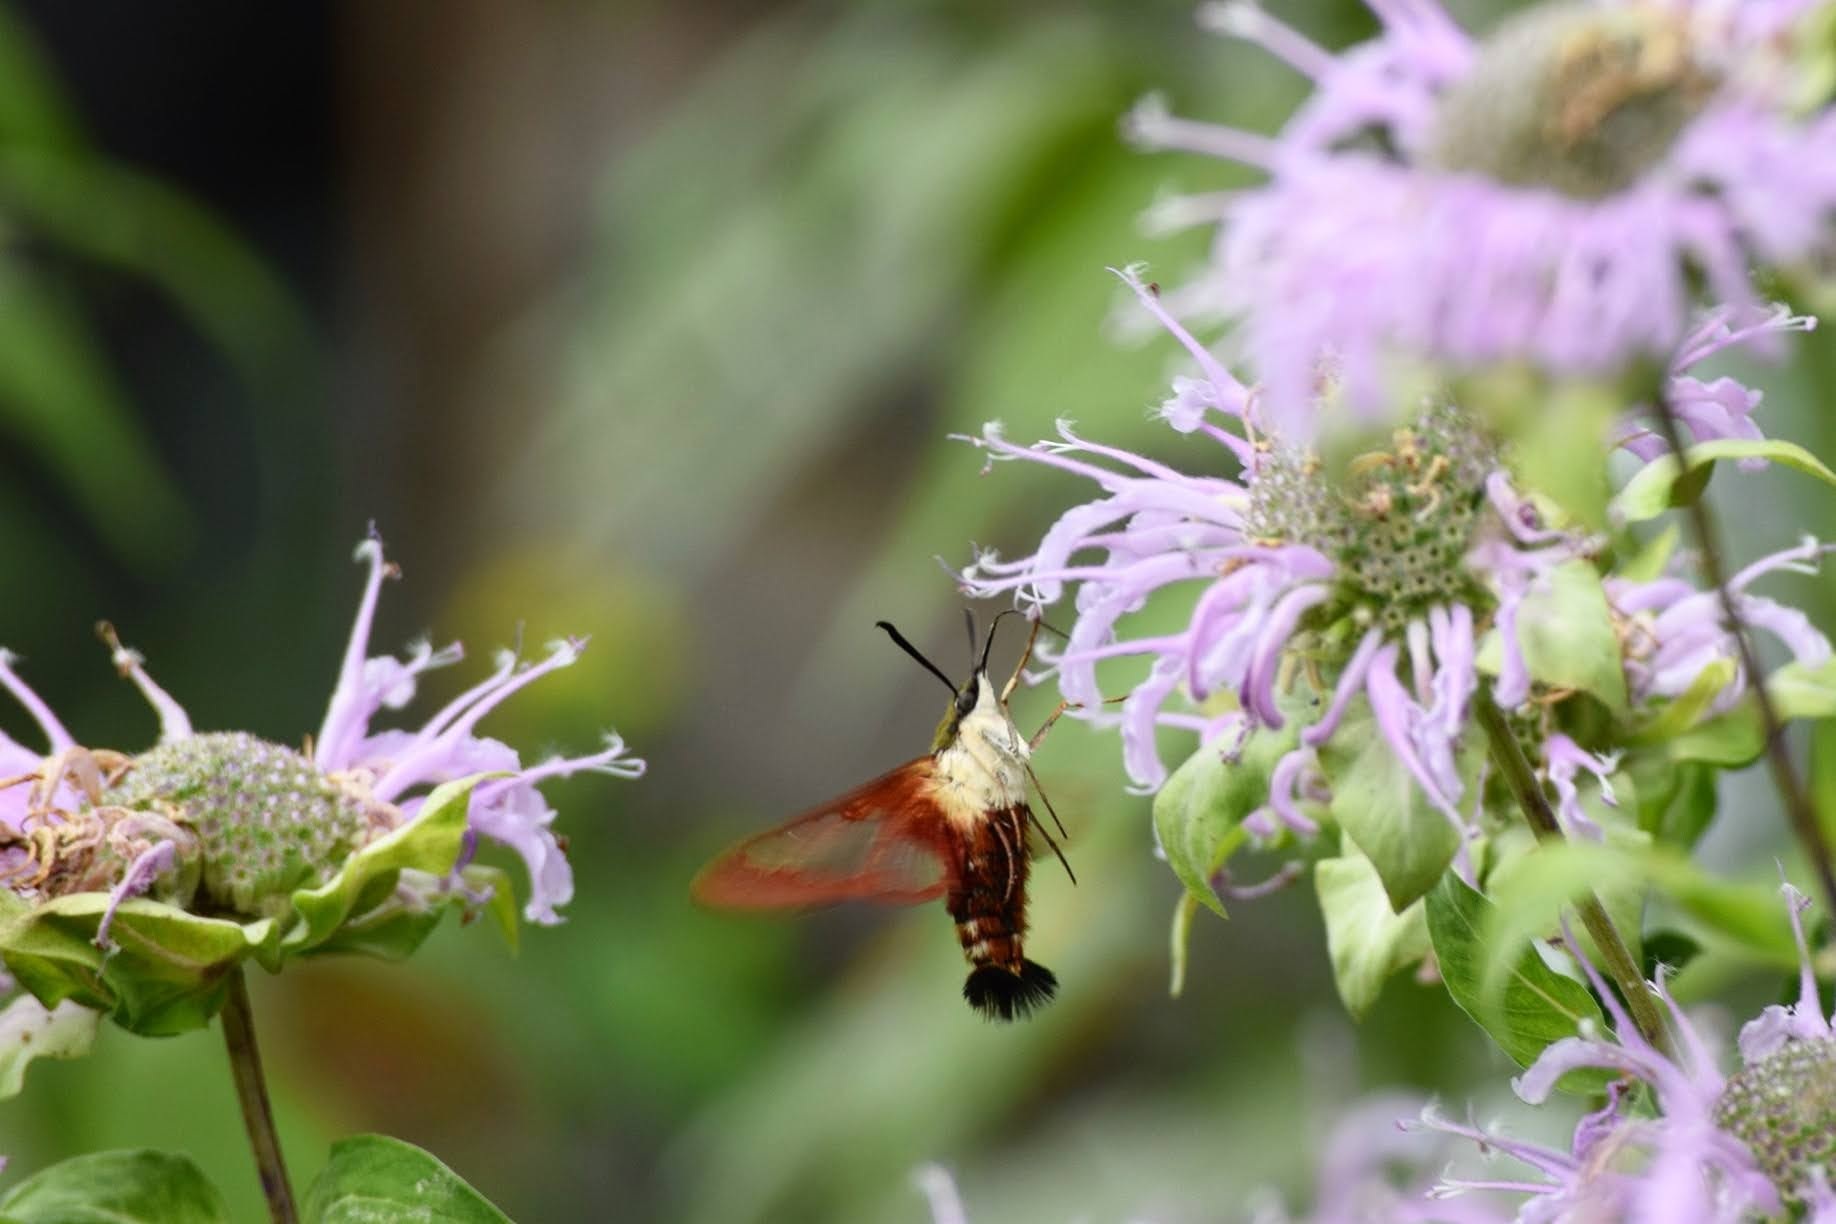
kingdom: Animalia
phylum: Arthropoda
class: Insecta
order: Lepidoptera
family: Sphingidae
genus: Hemaris
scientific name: Hemaris thysbe
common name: Common clear-wing
